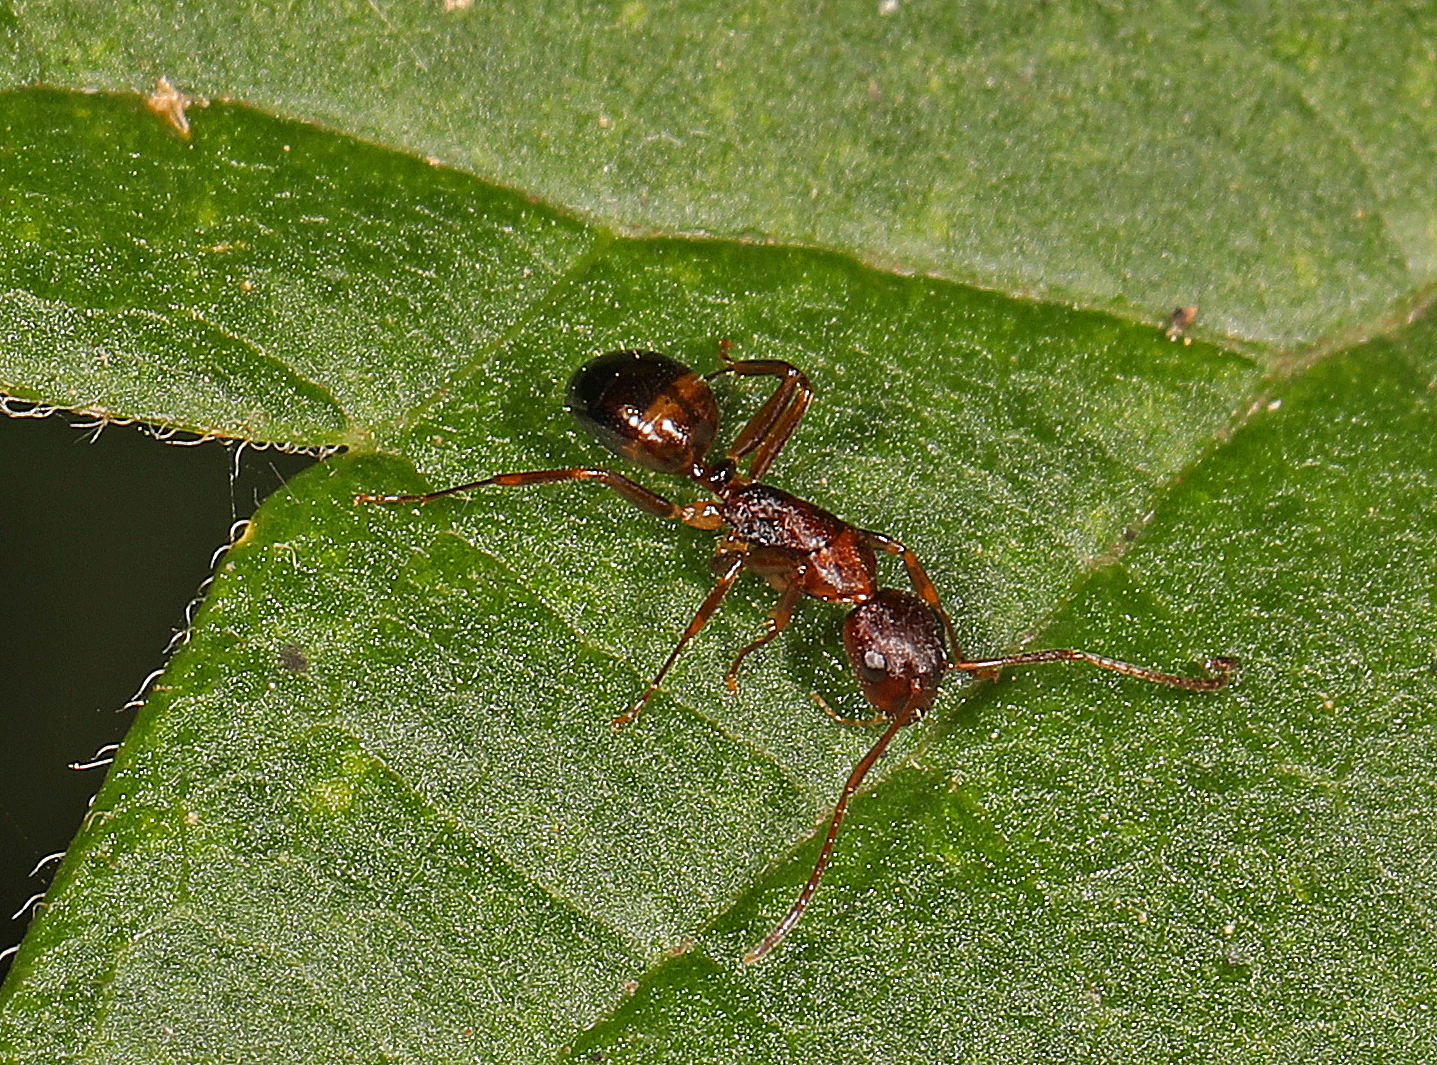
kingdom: Animalia
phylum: Arthropoda
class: Insecta
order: Hymenoptera
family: Formicidae
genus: Camponotus
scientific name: Camponotus subbarbatus
